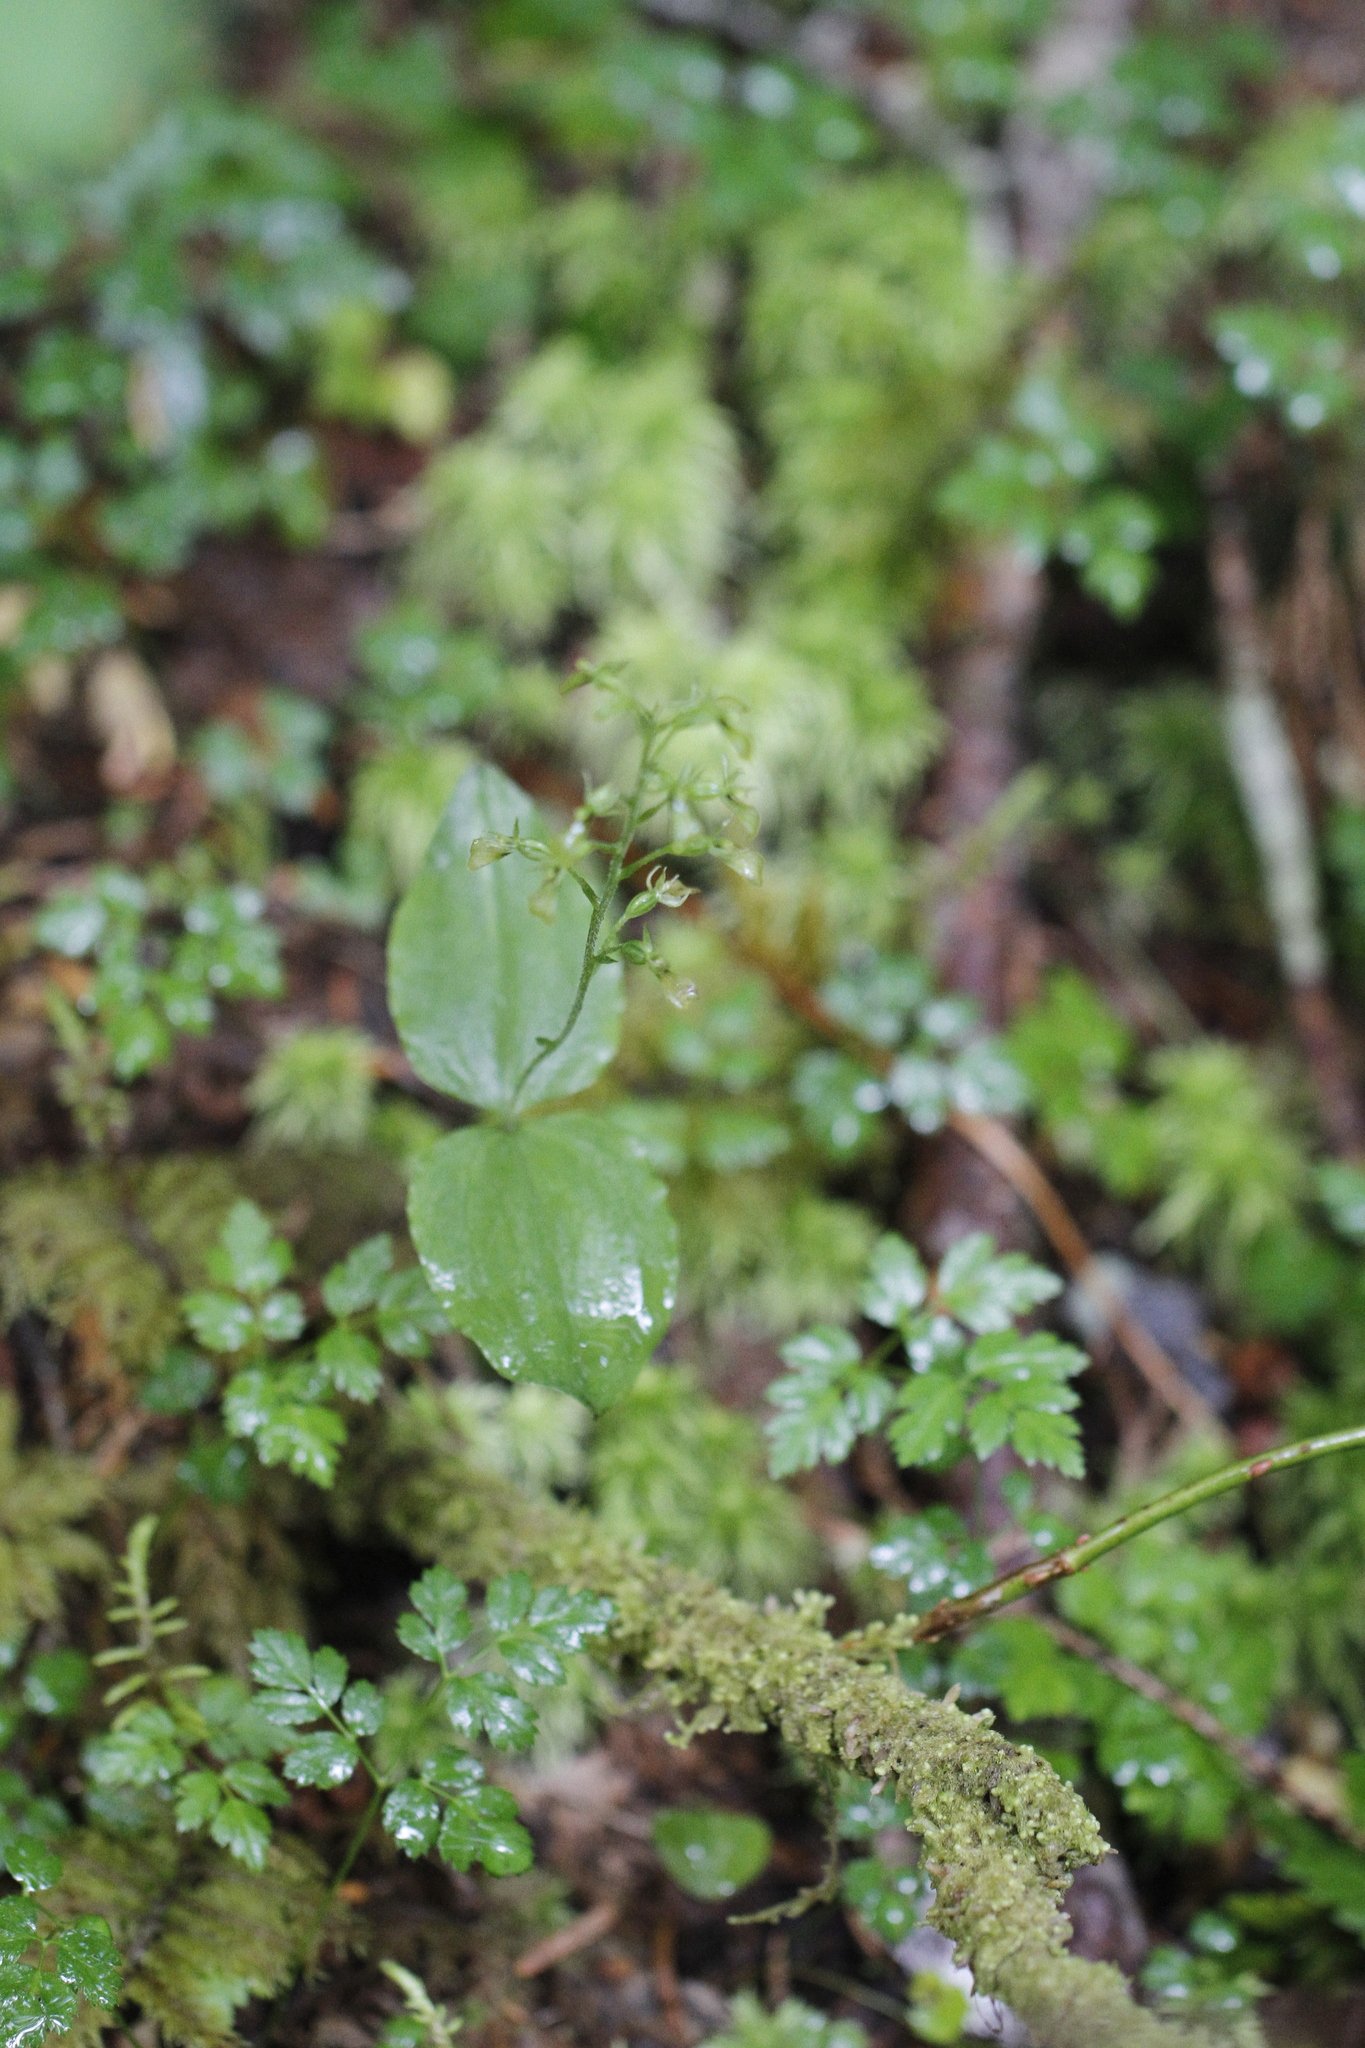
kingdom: Plantae
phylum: Tracheophyta
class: Liliopsida
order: Asparagales
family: Orchidaceae
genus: Neottia
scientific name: Neottia banksiana
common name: Northwestern twayblade
